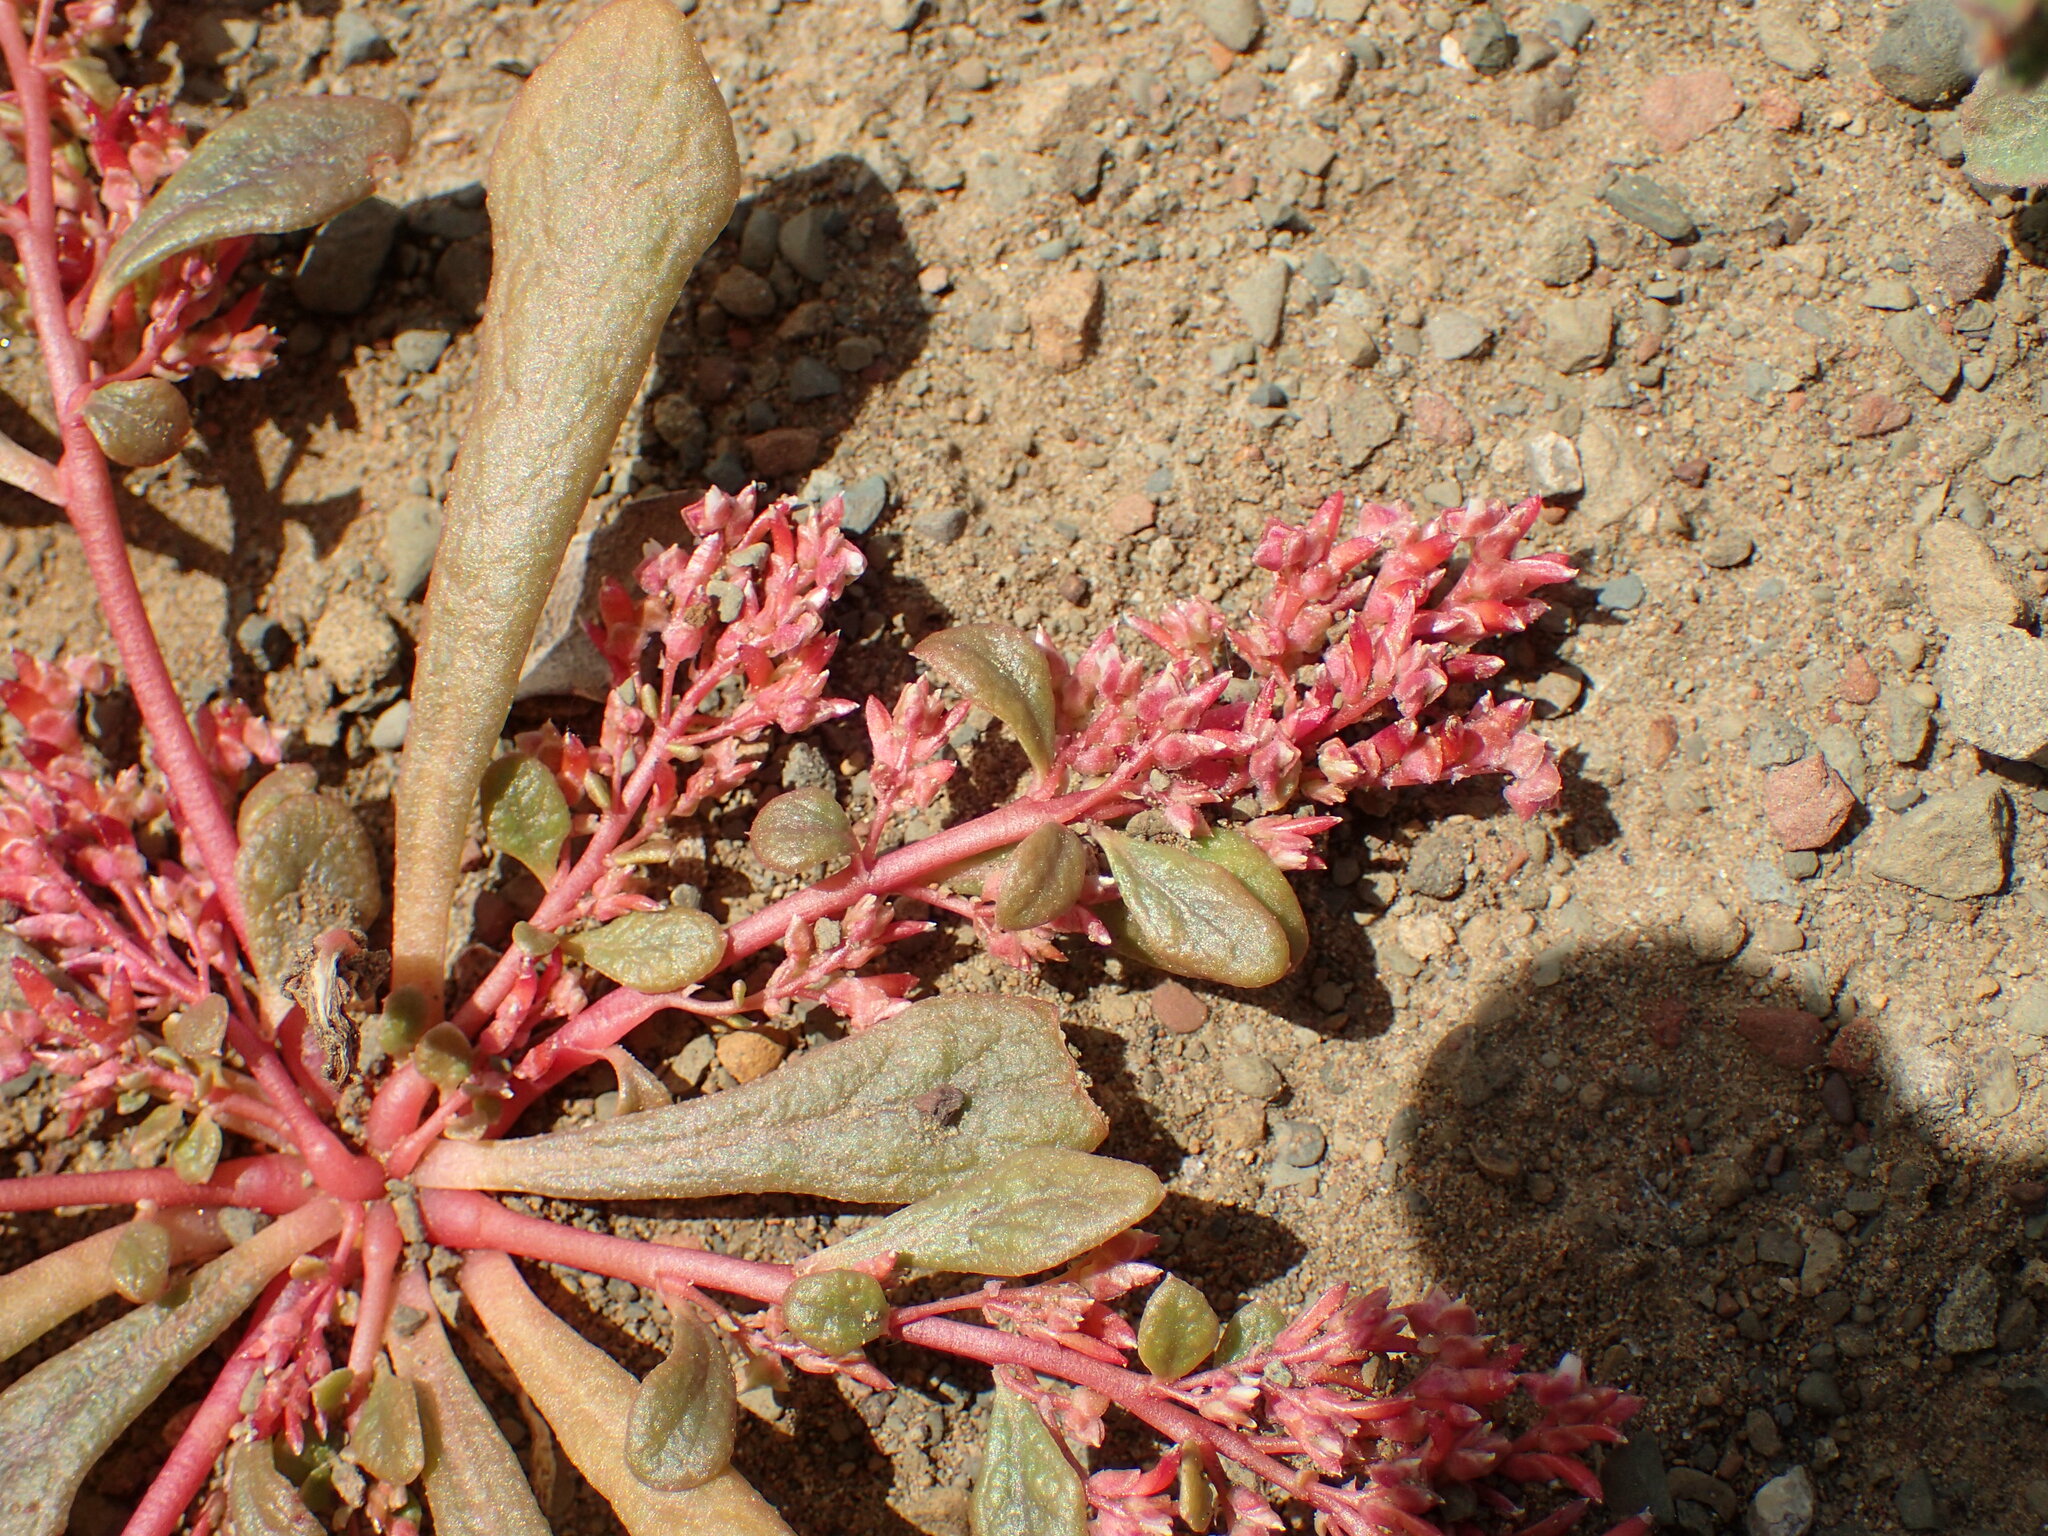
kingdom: Plantae
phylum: Tracheophyta
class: Magnoliopsida
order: Caryophyllales
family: Montiaceae
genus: Calyptridium
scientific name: Calyptridium monandrum
